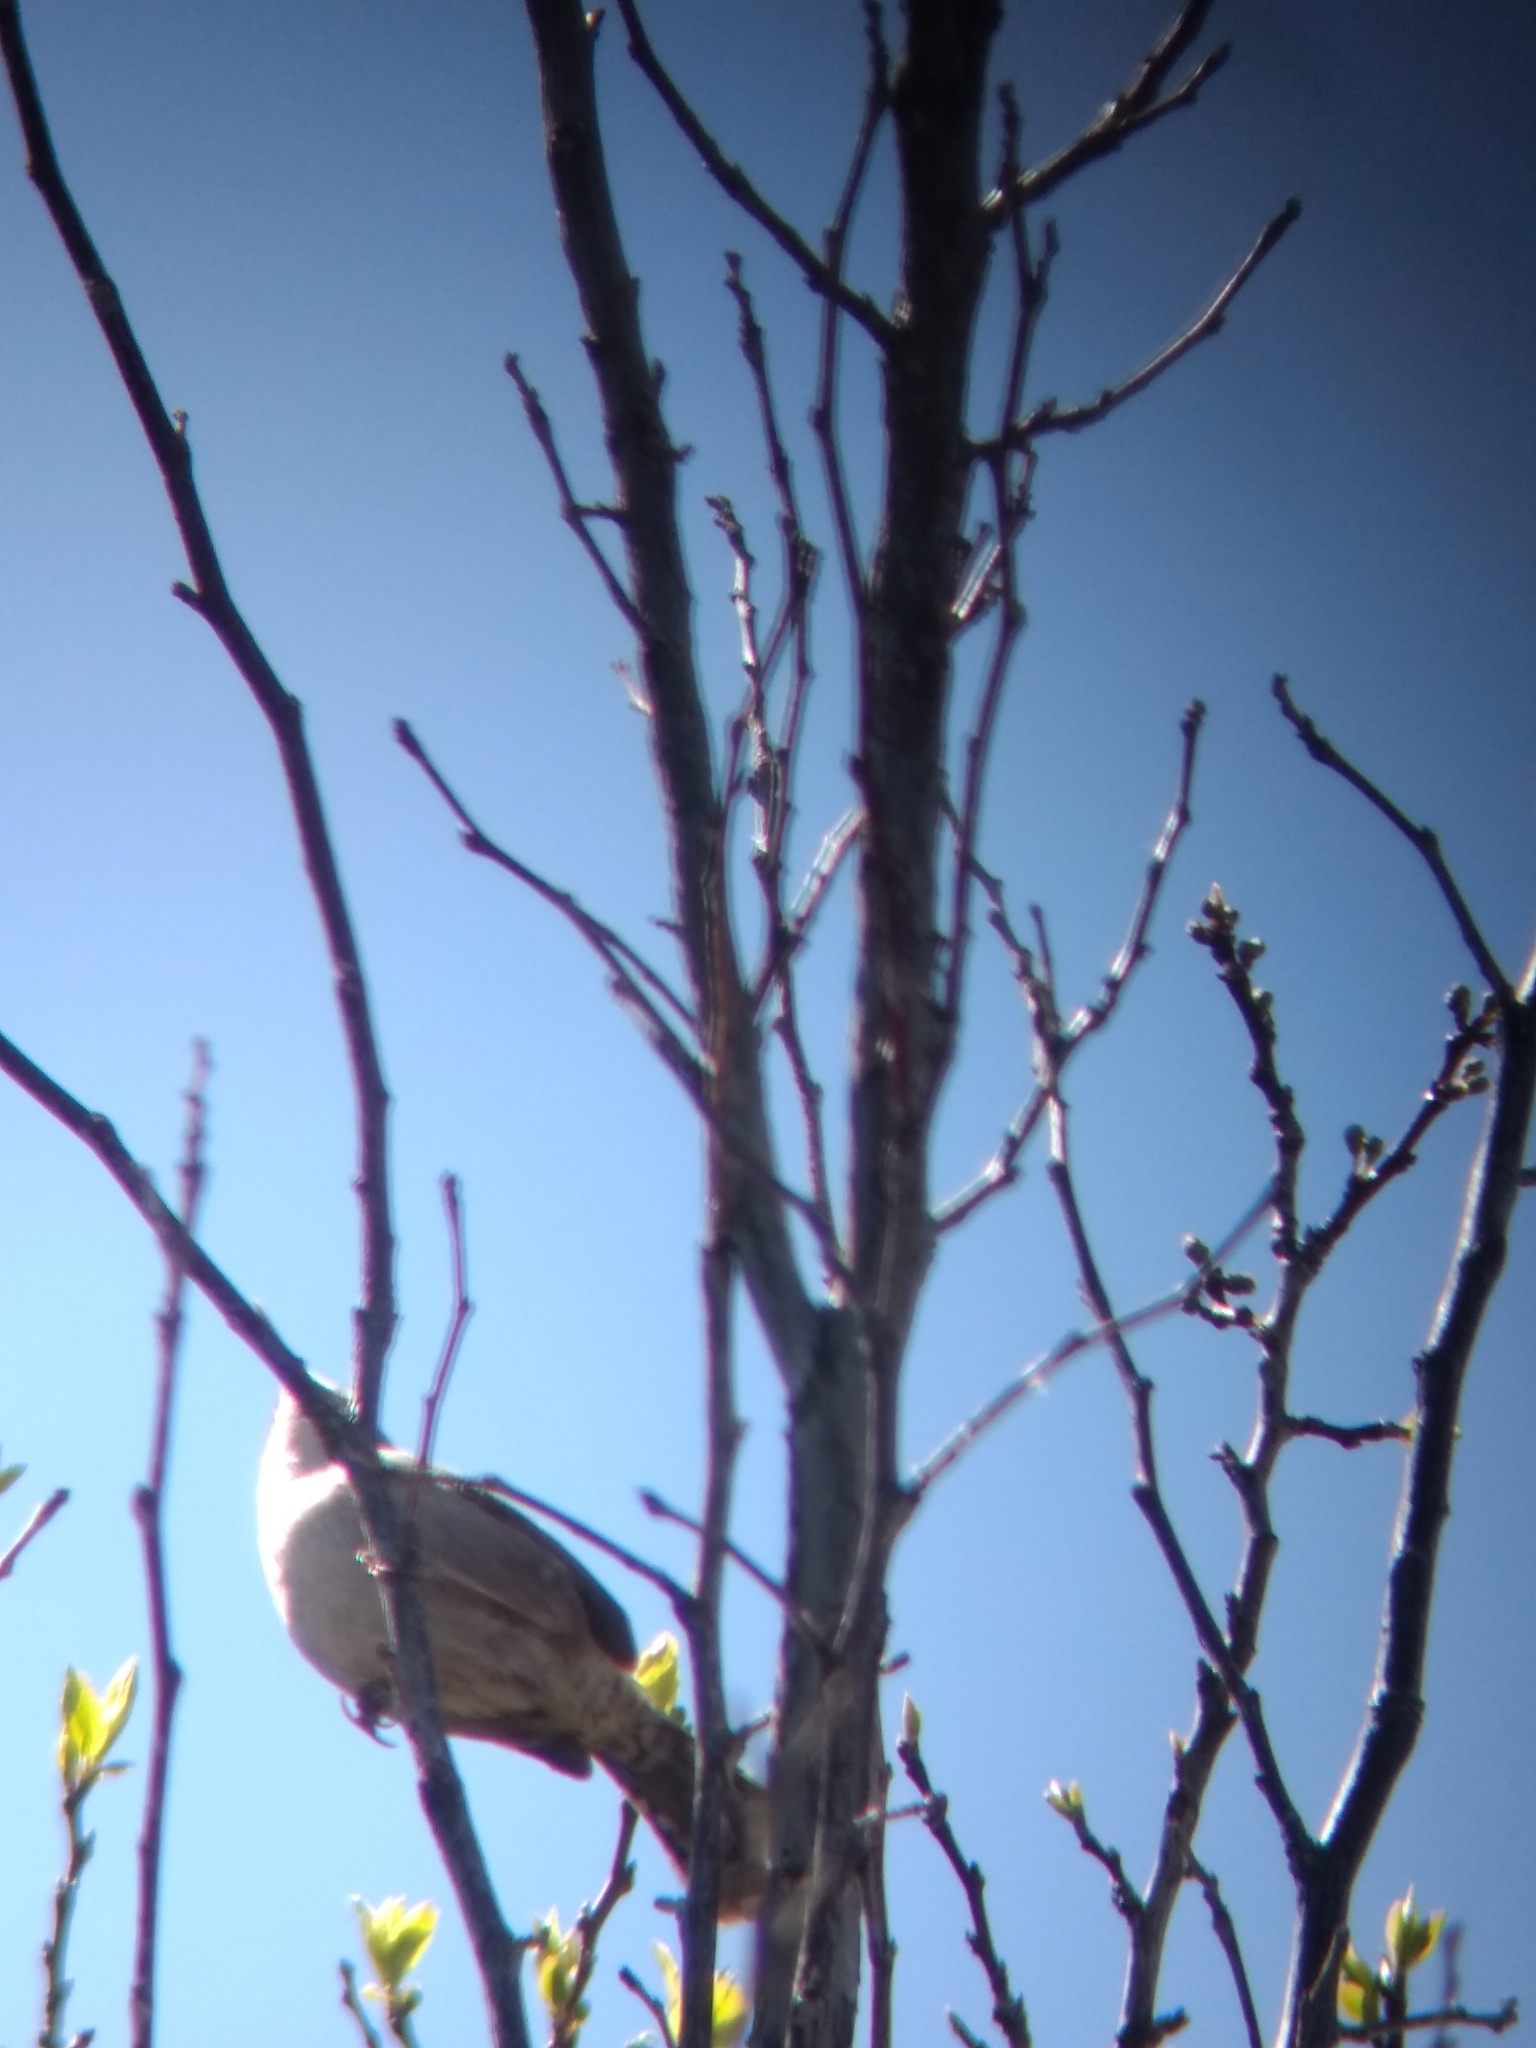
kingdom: Animalia
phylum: Chordata
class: Aves
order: Passeriformes
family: Troglodytidae
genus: Thryomanes
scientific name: Thryomanes bewickii
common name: Bewick's wren
